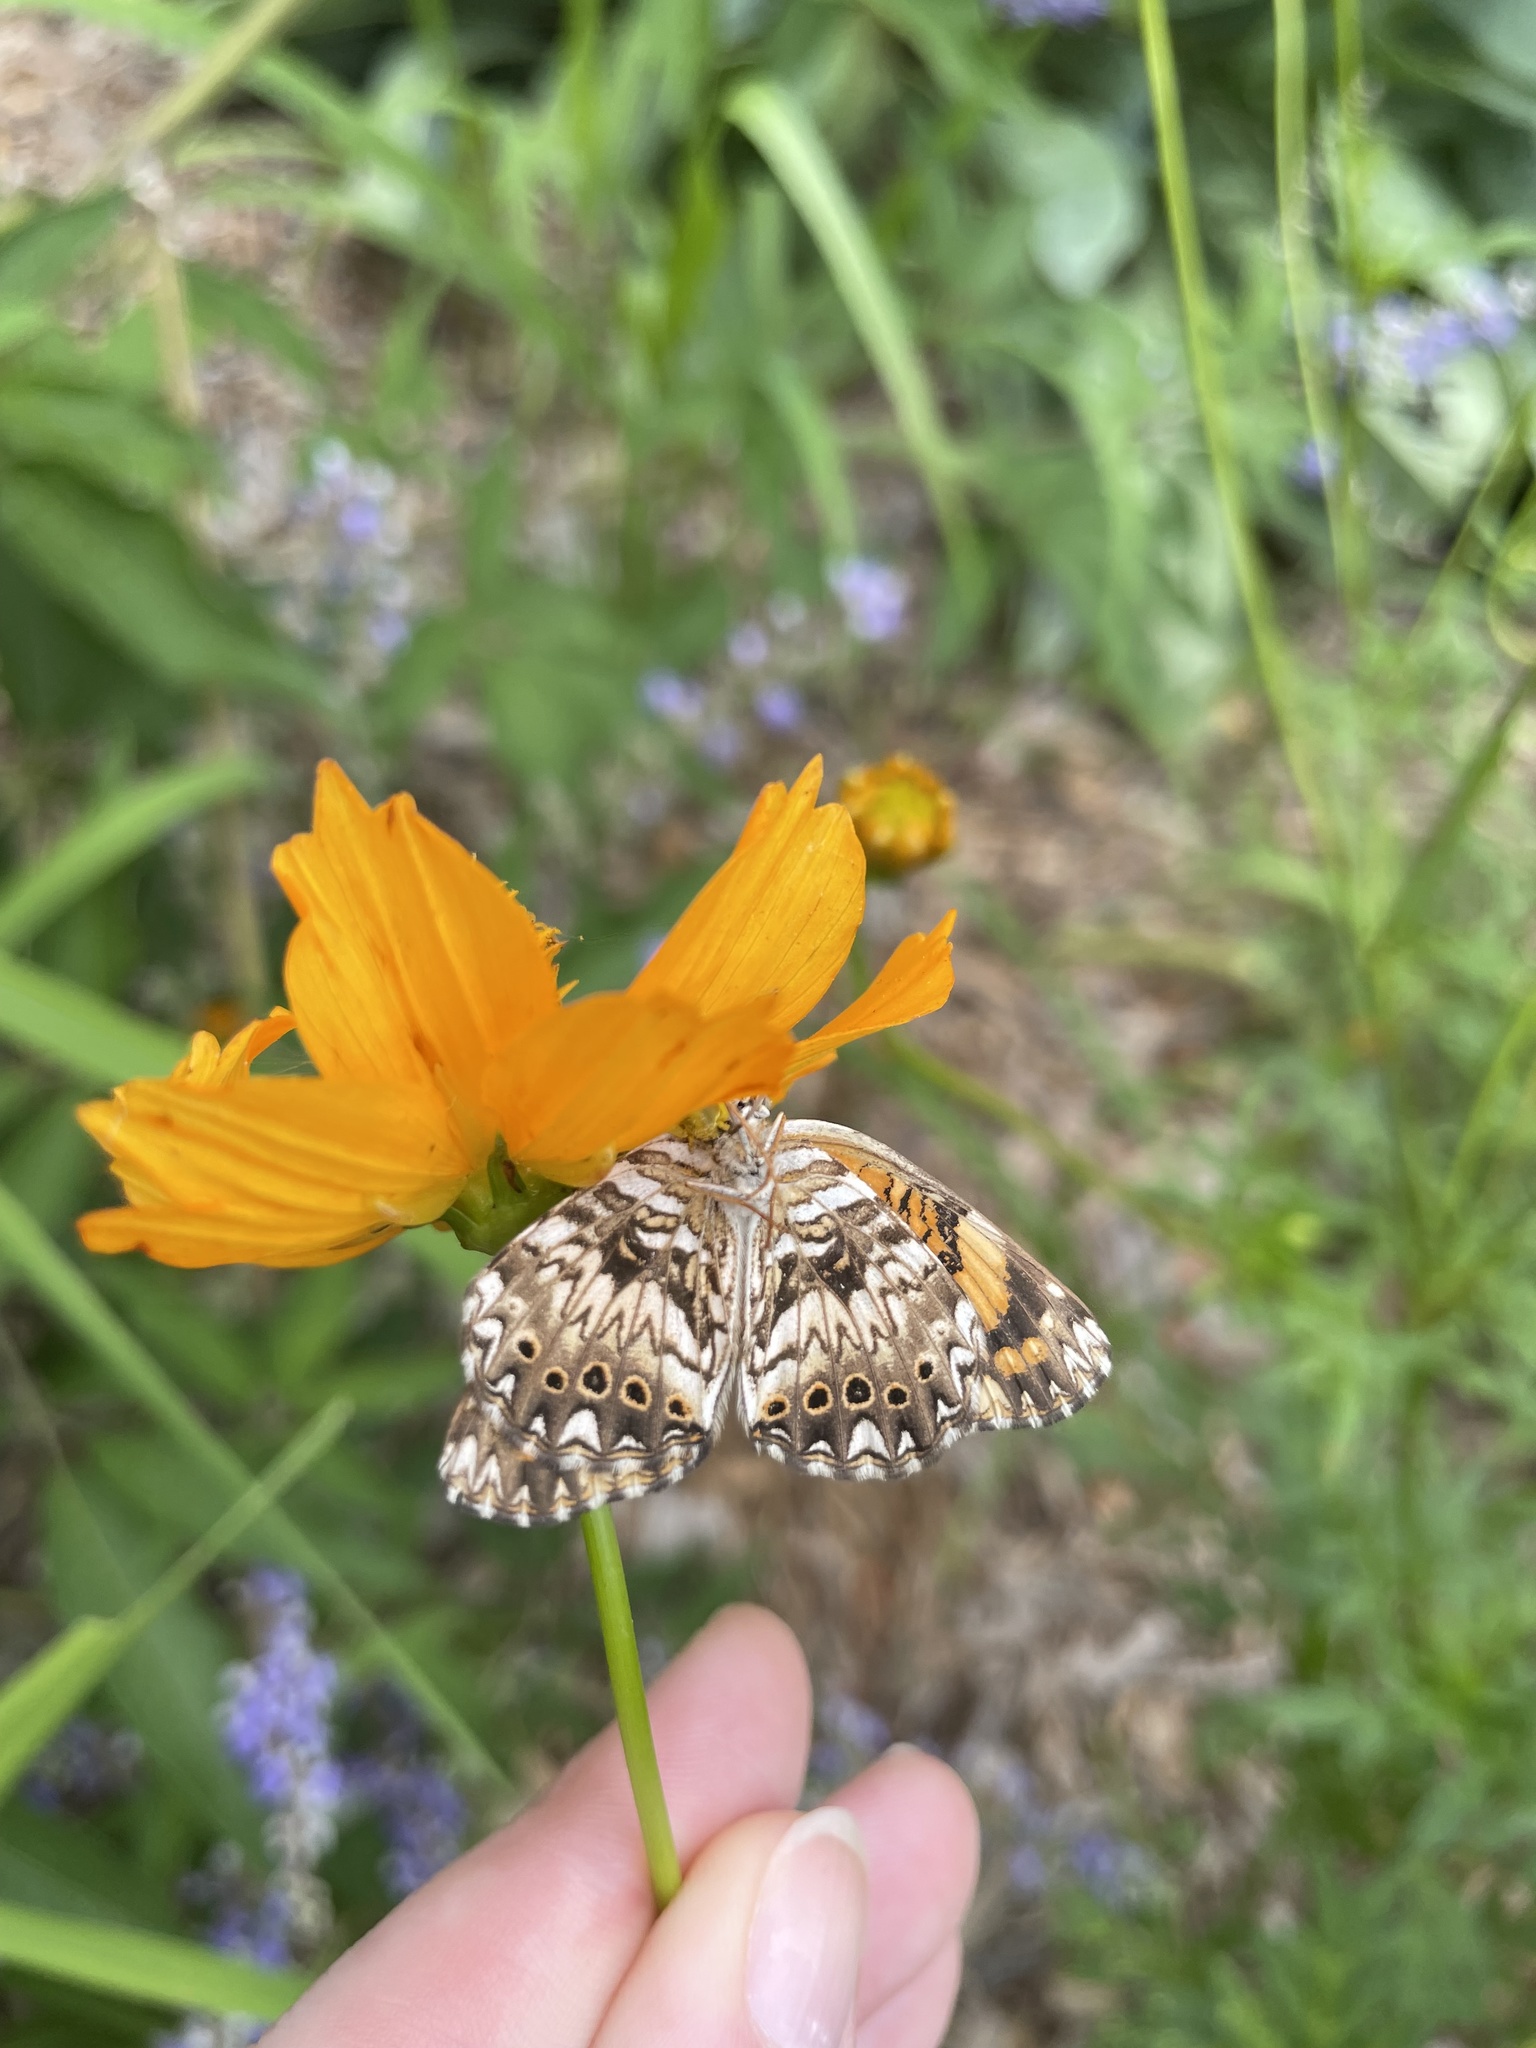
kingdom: Animalia
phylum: Arthropoda
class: Insecta
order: Lepidoptera
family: Nymphalidae
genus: Chlosyne
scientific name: Chlosyne gorgone
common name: Gorgone checkerspot
